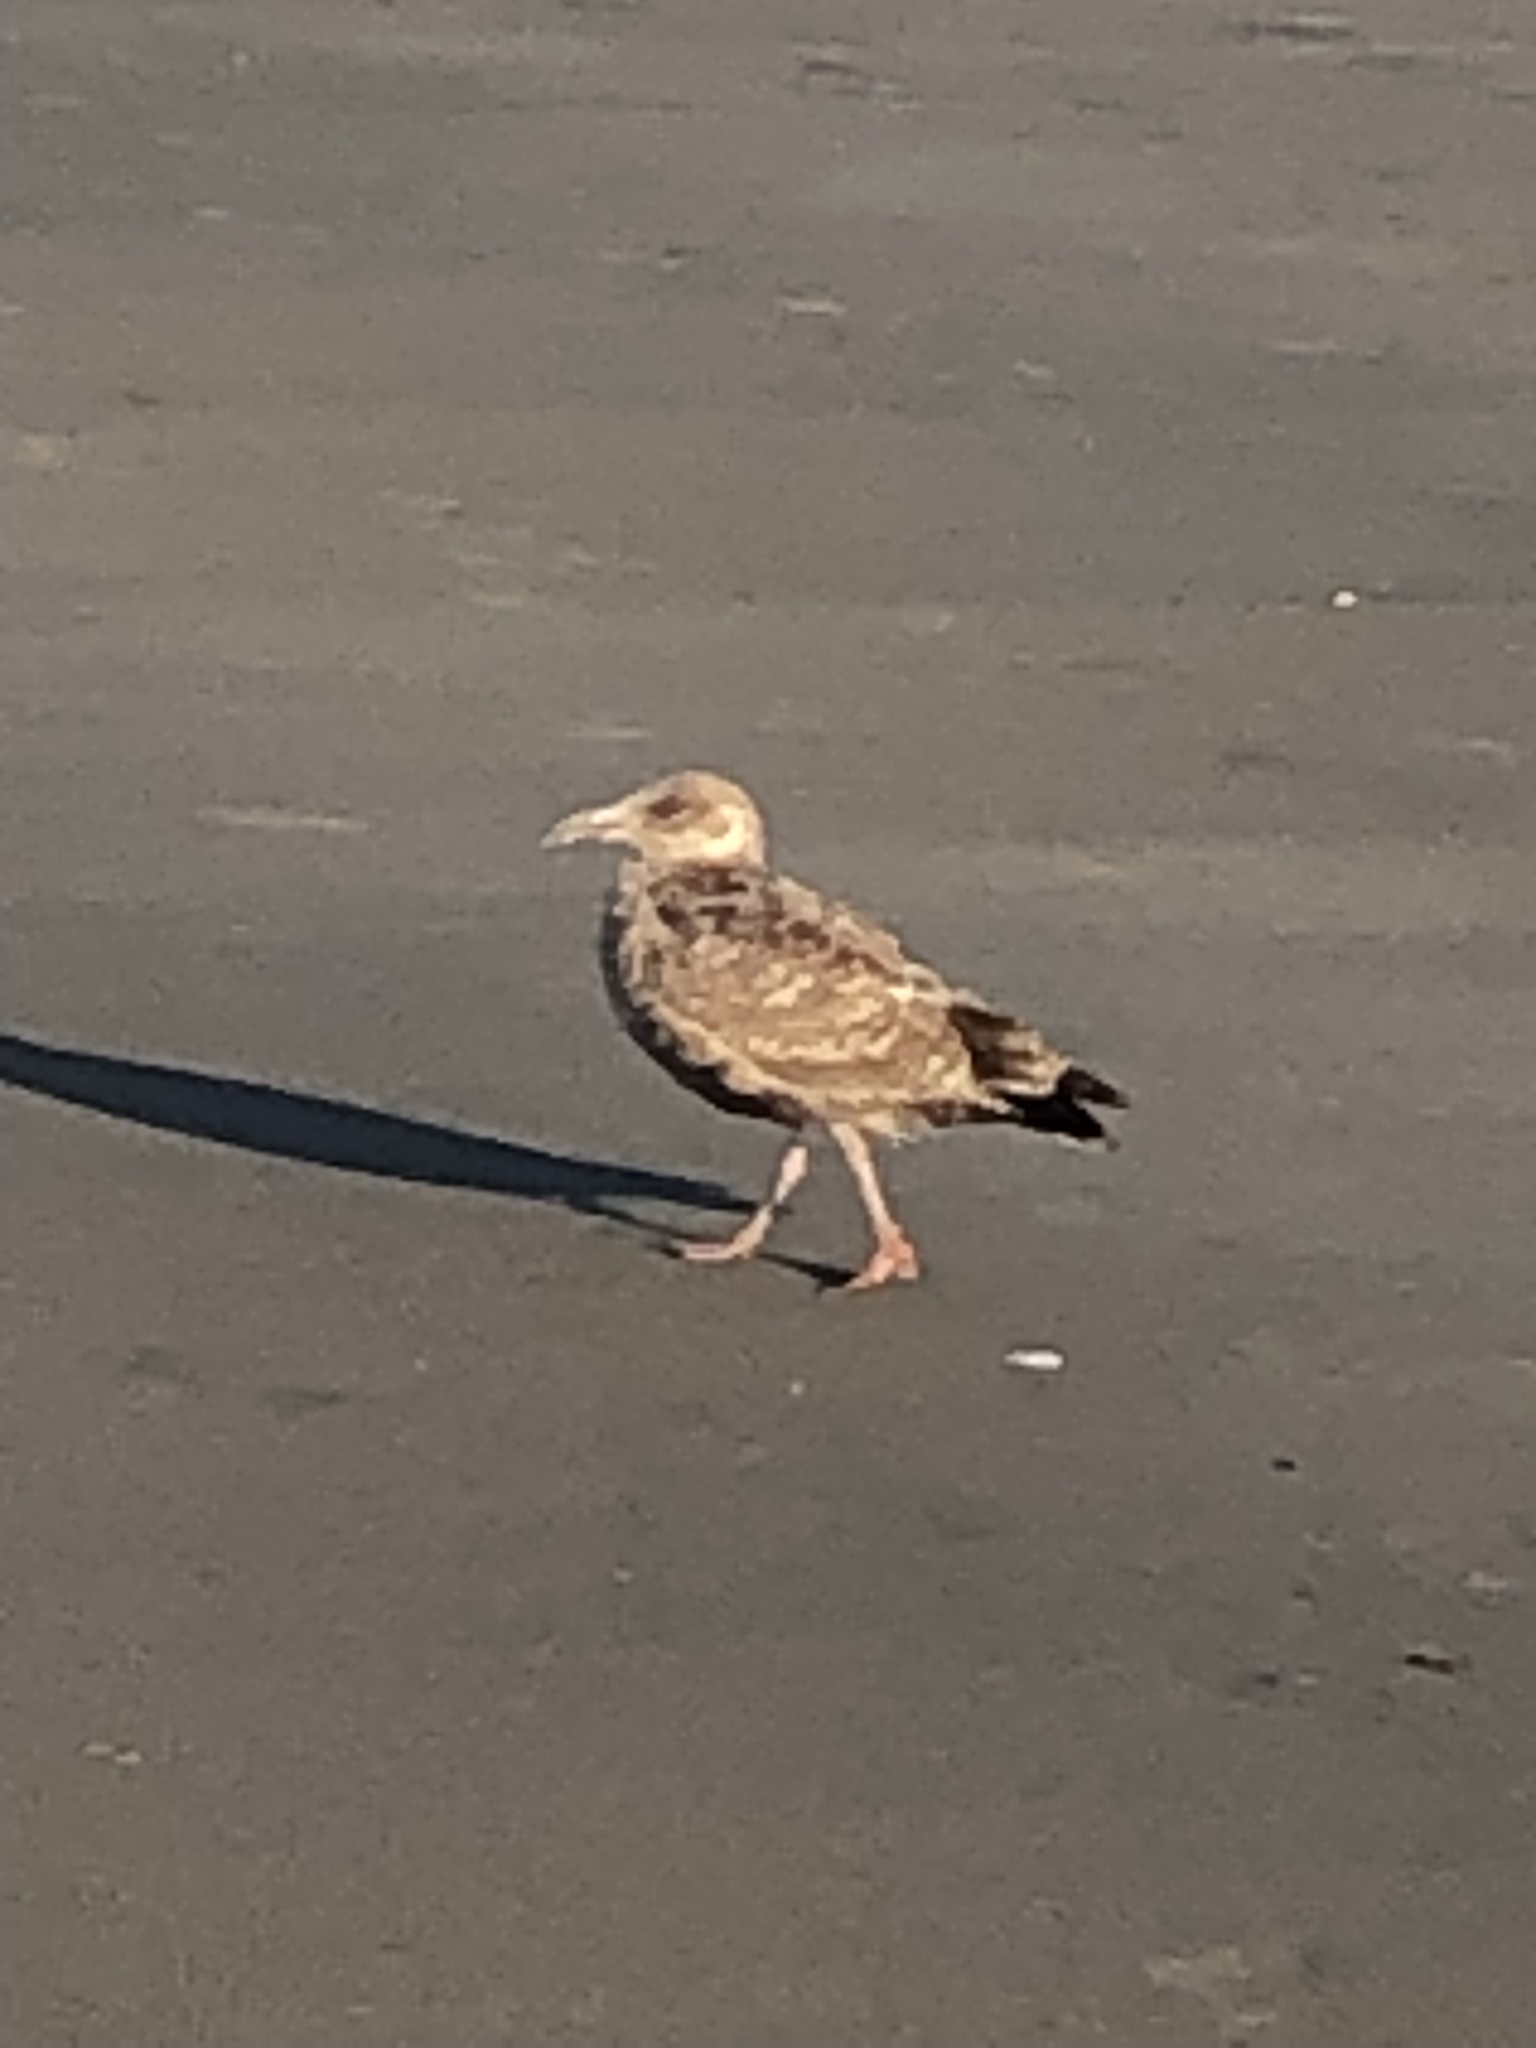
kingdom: Animalia
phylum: Chordata
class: Aves
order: Charadriiformes
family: Laridae
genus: Larus
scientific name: Larus argentatus
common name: Herring gull
